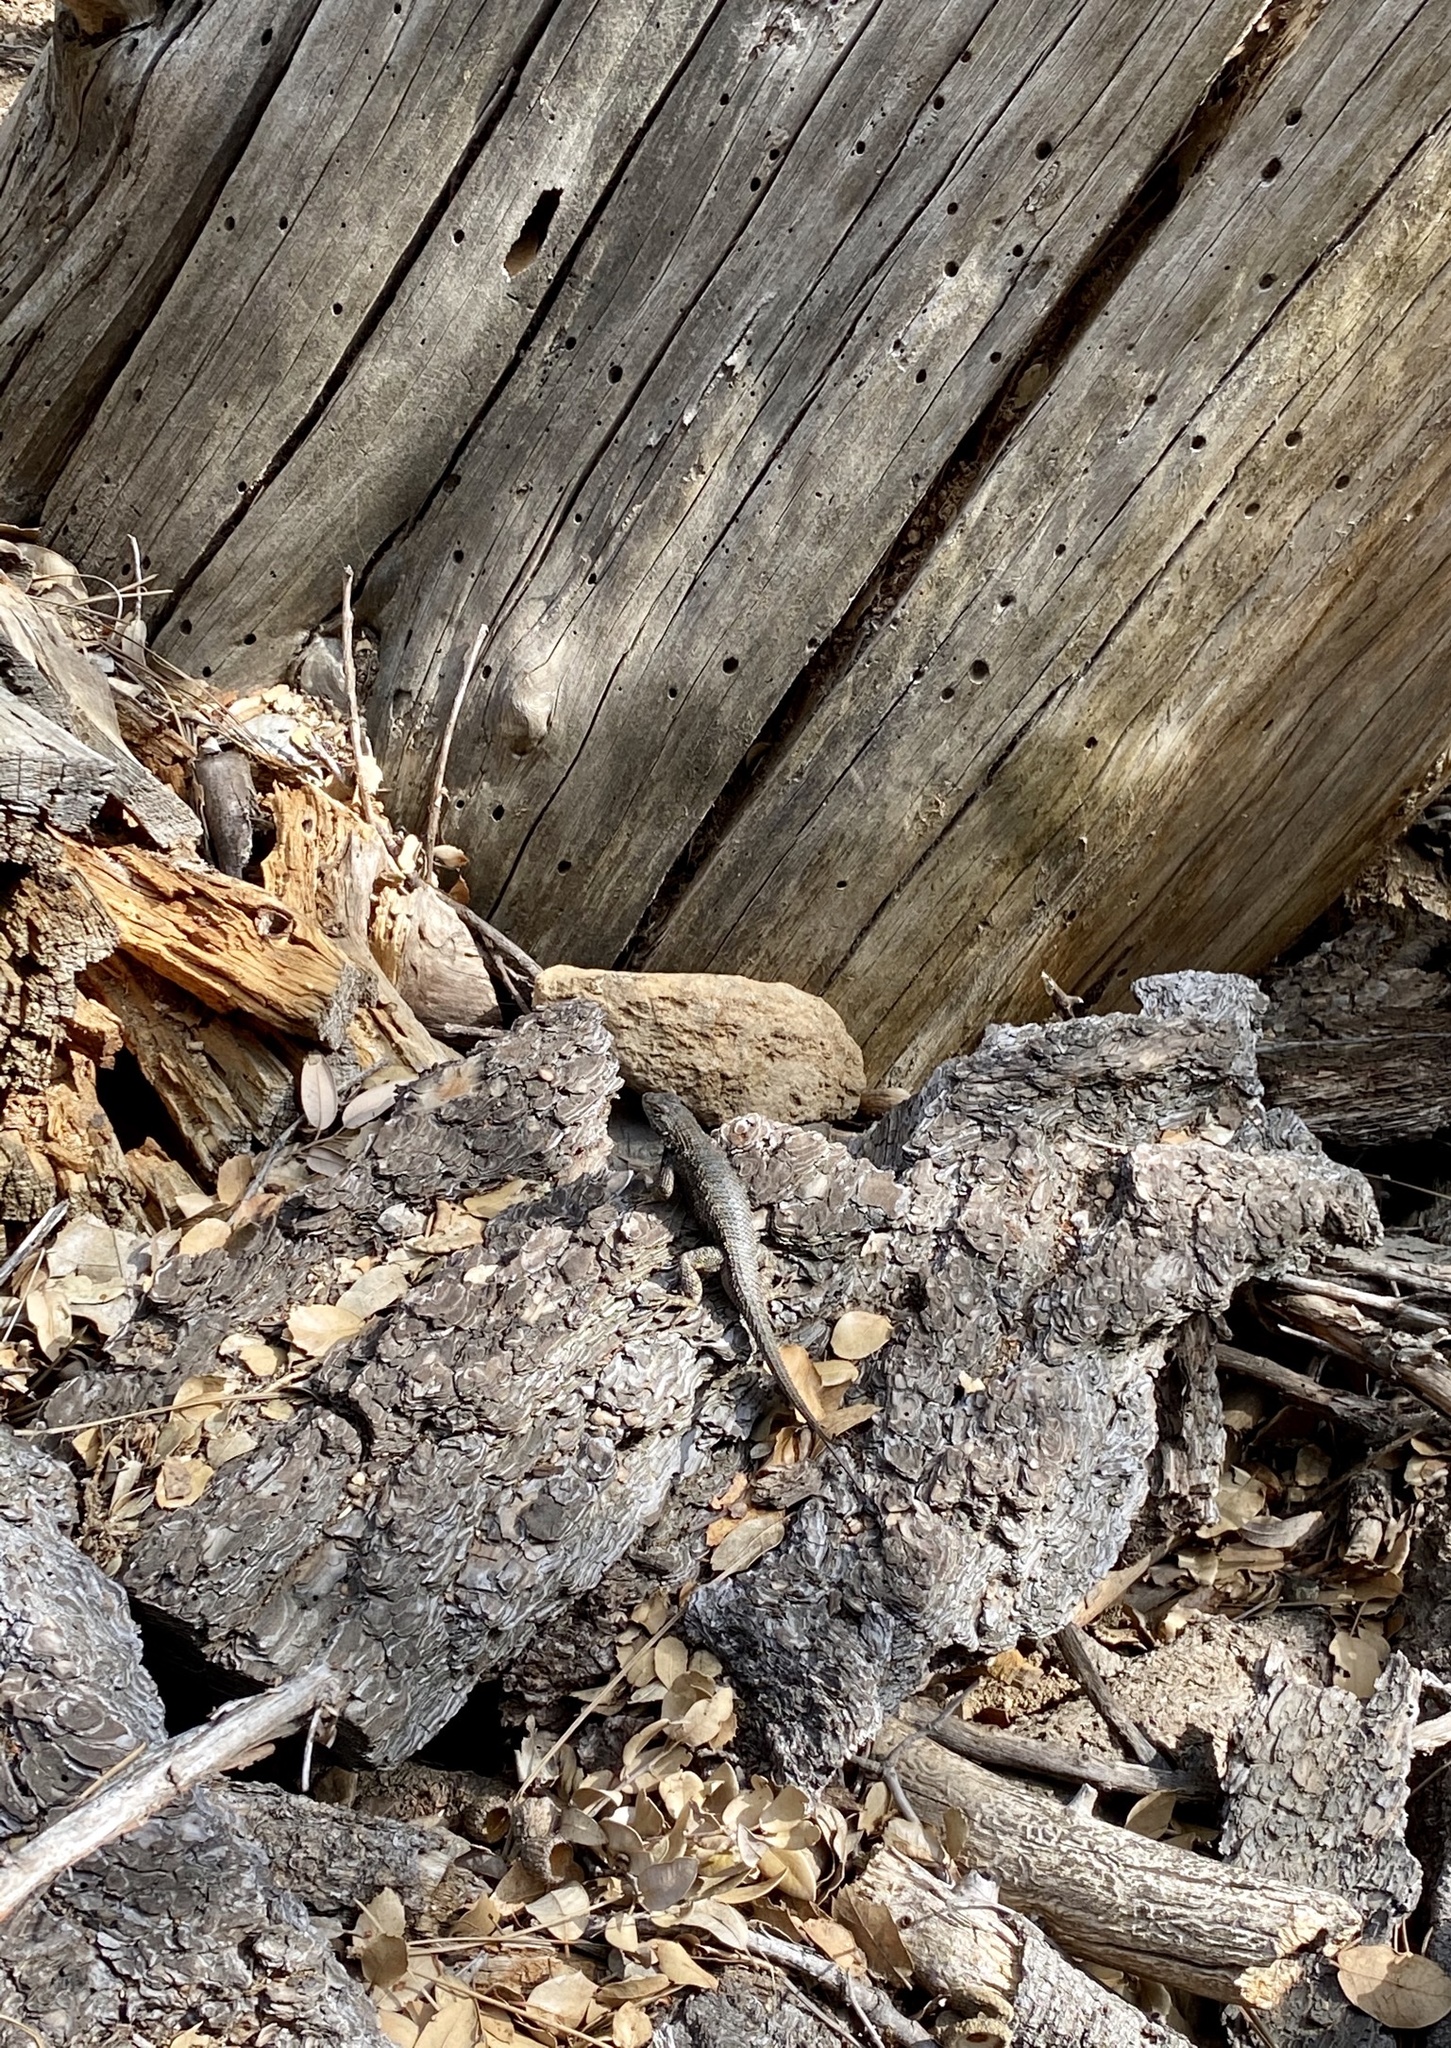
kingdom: Animalia
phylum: Chordata
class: Squamata
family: Phrynosomatidae
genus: Sceloporus
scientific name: Sceloporus occidentalis
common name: Western fence lizard
